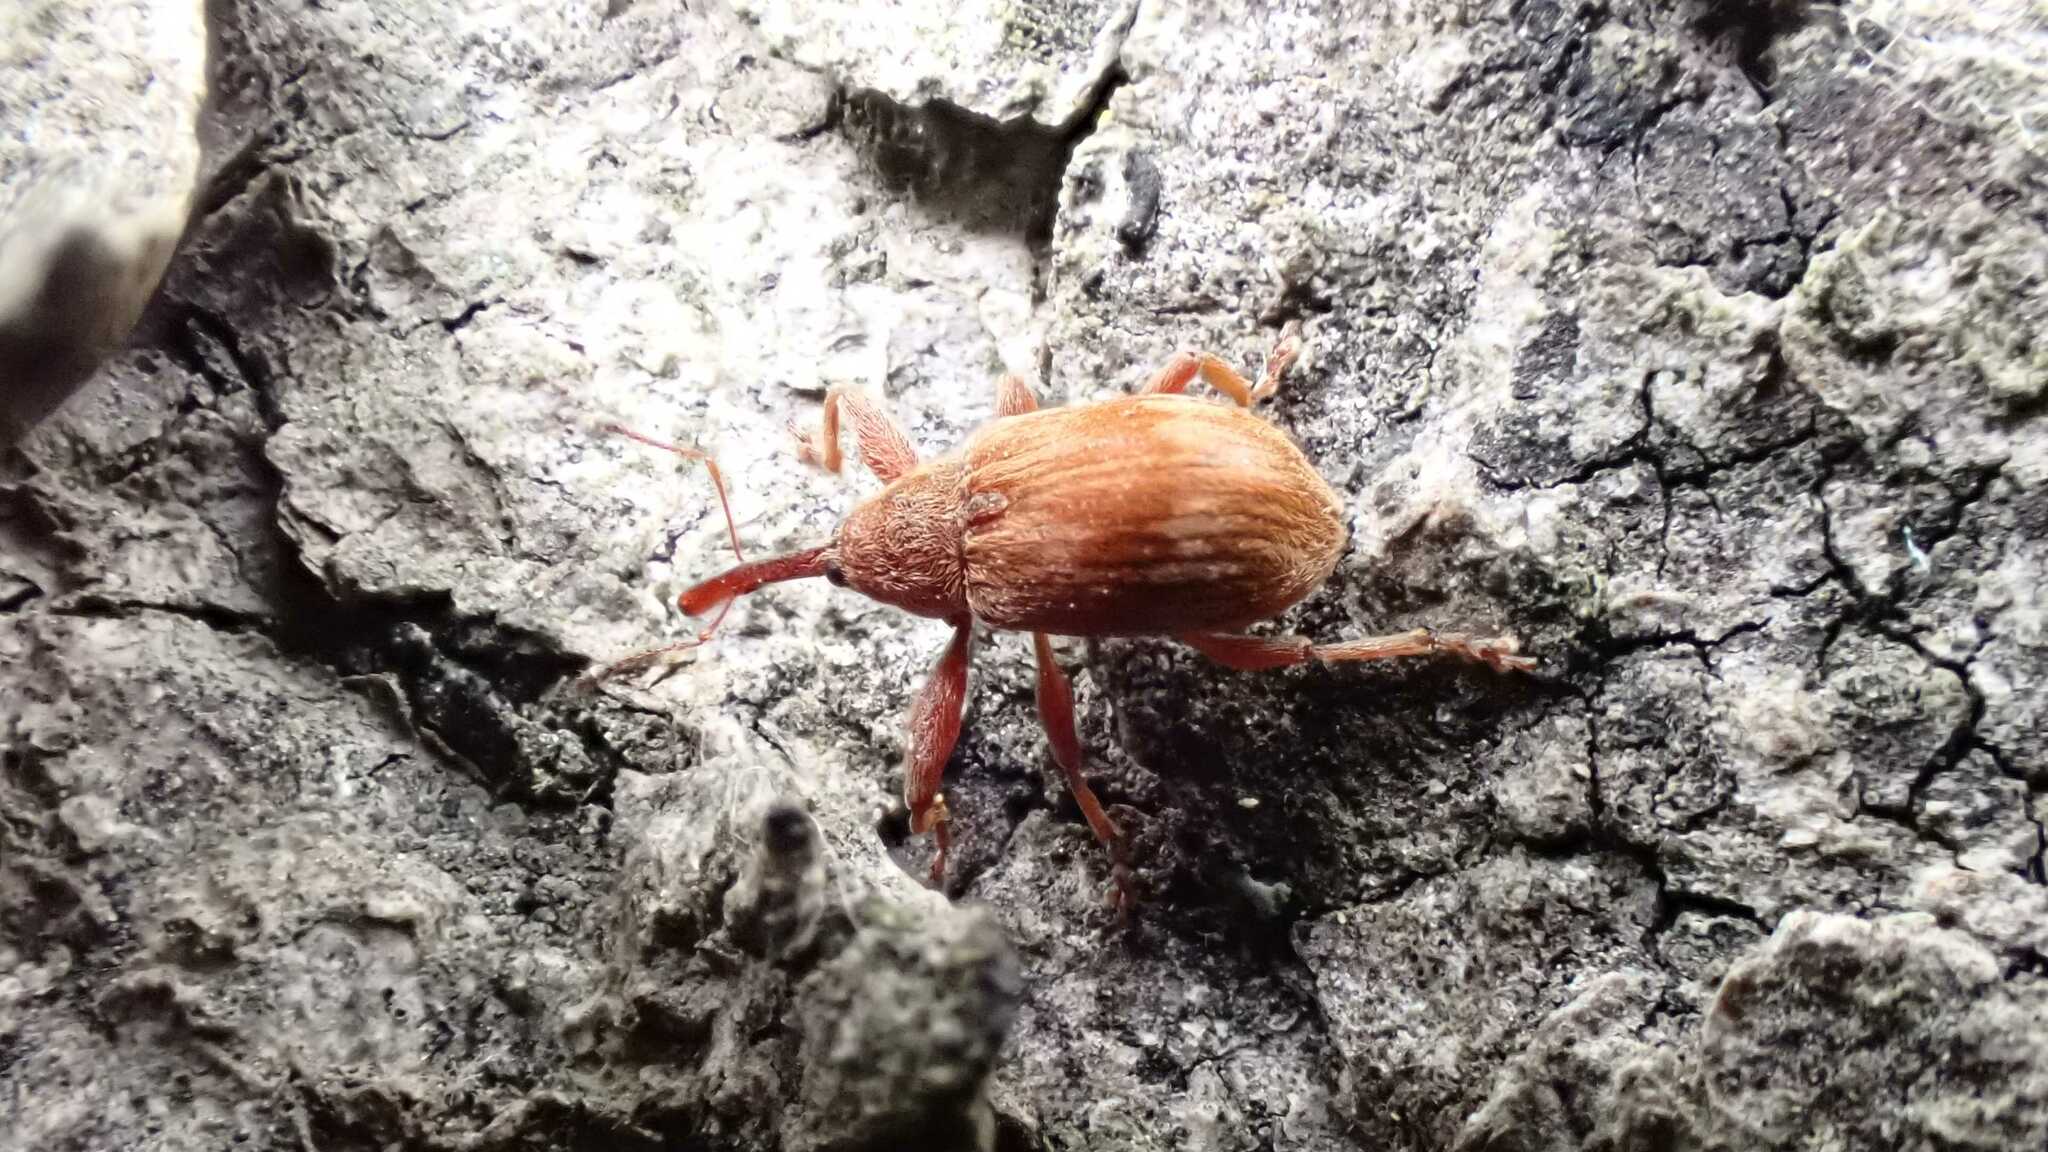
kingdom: Animalia
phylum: Arthropoda
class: Insecta
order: Coleoptera
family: Curculionidae
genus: Anthonomus
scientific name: Anthonomus rectirostris
